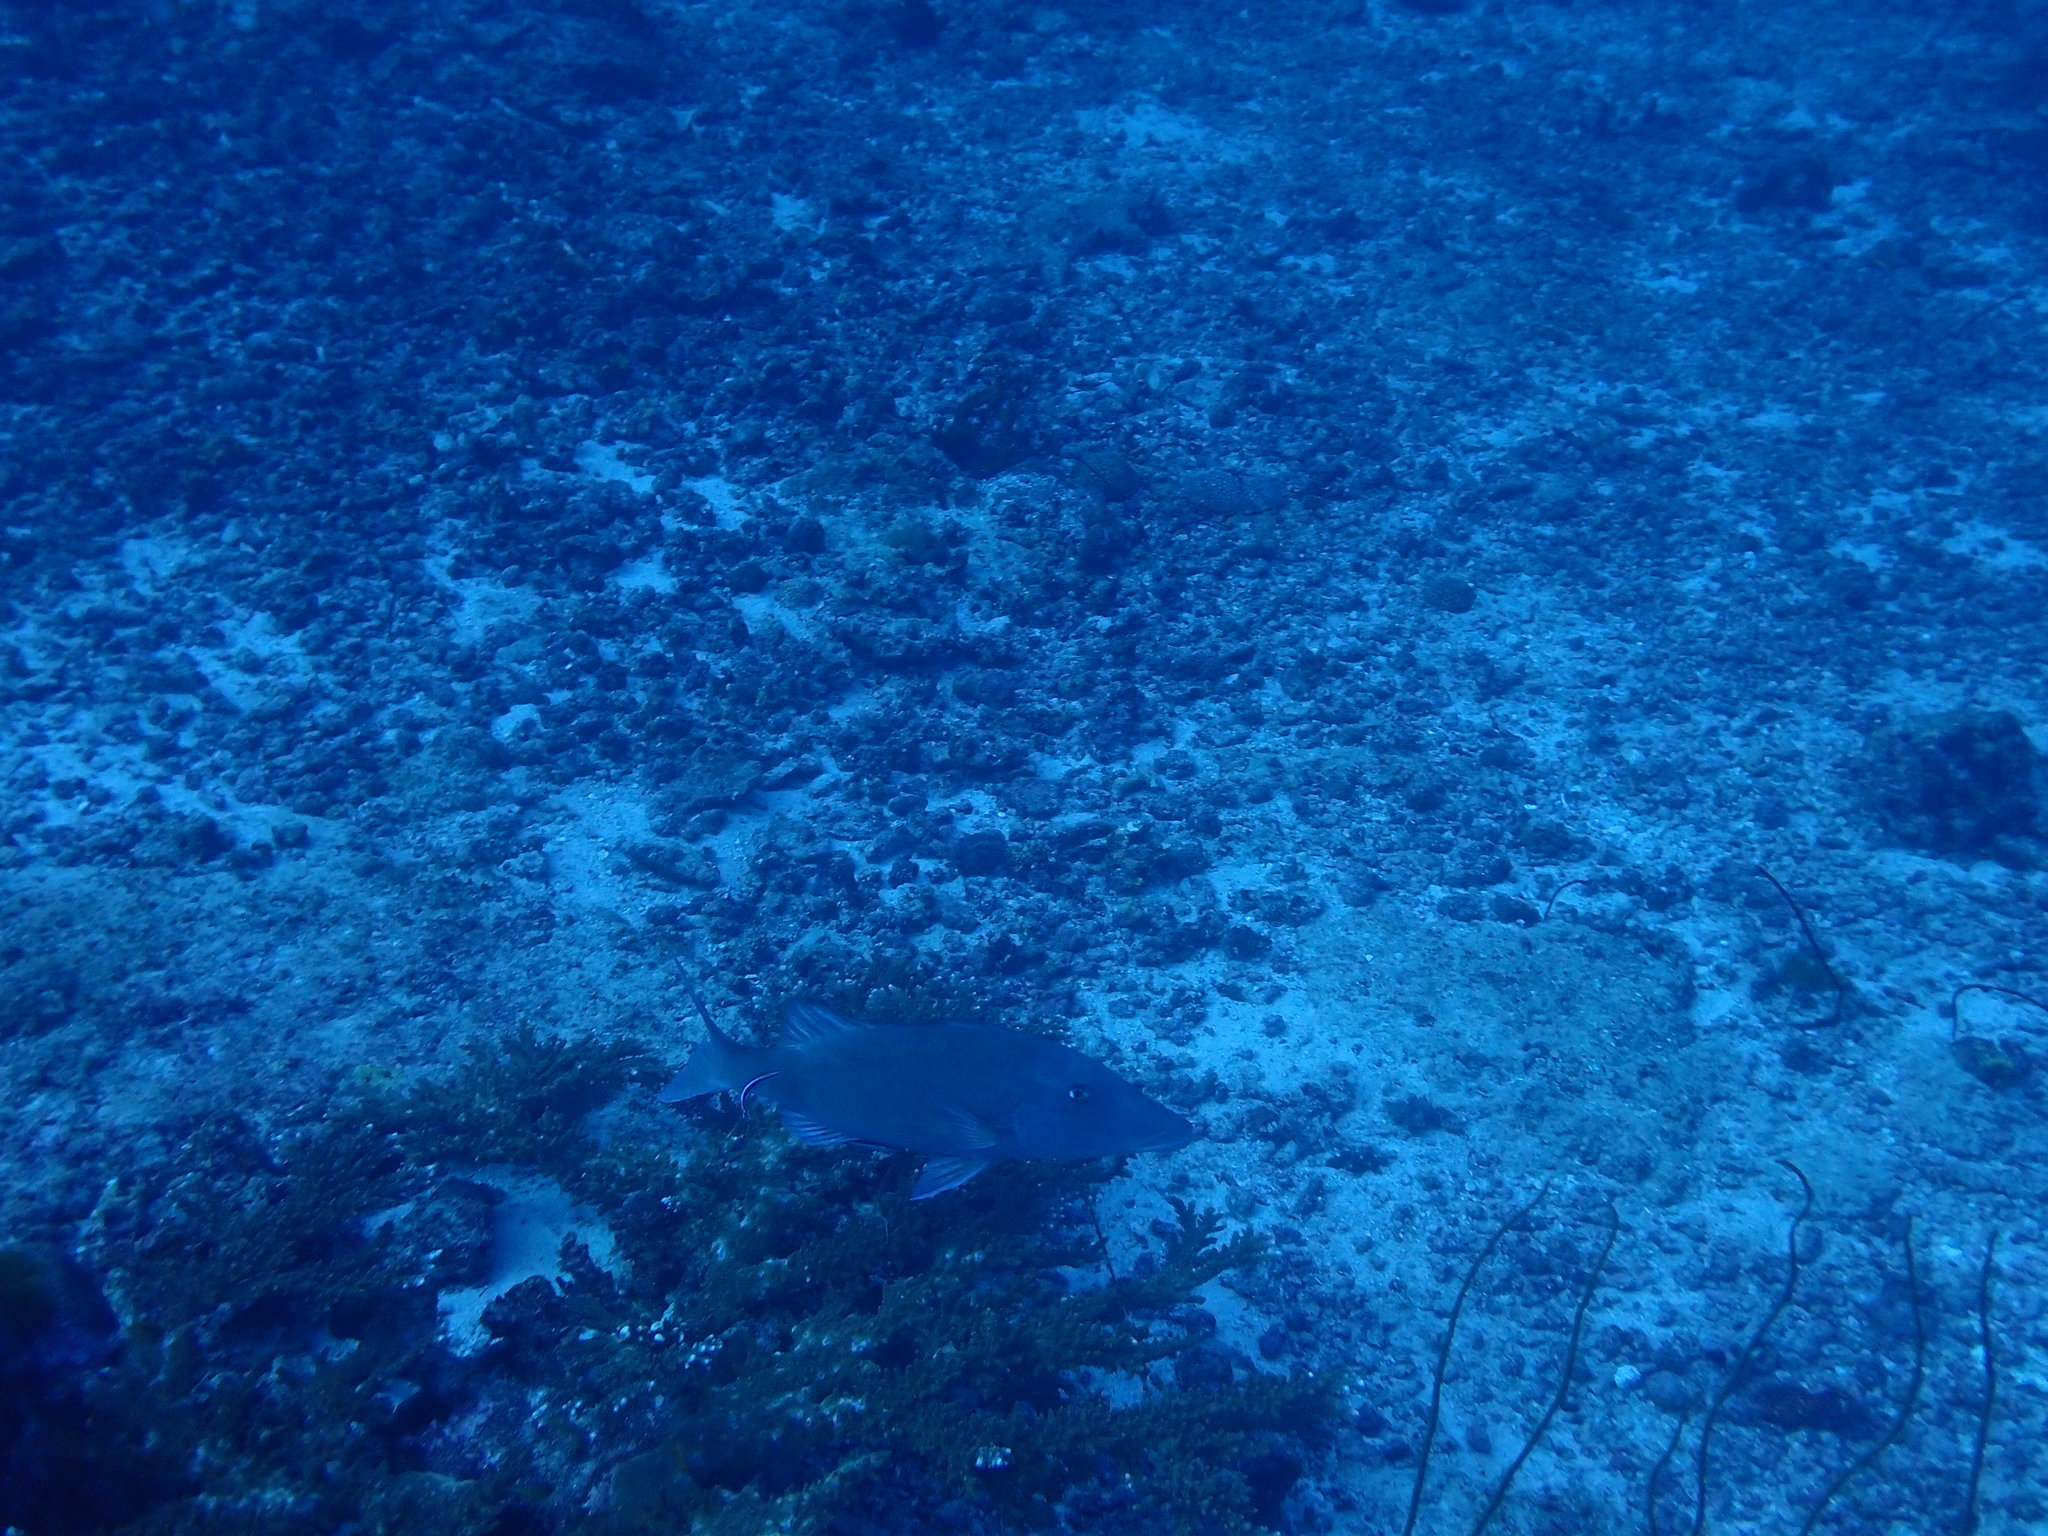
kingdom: Animalia
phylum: Chordata
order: Perciformes
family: Lethrinidae
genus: Lethrinus
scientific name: Lethrinus olivaceus
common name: Longnose emperor
